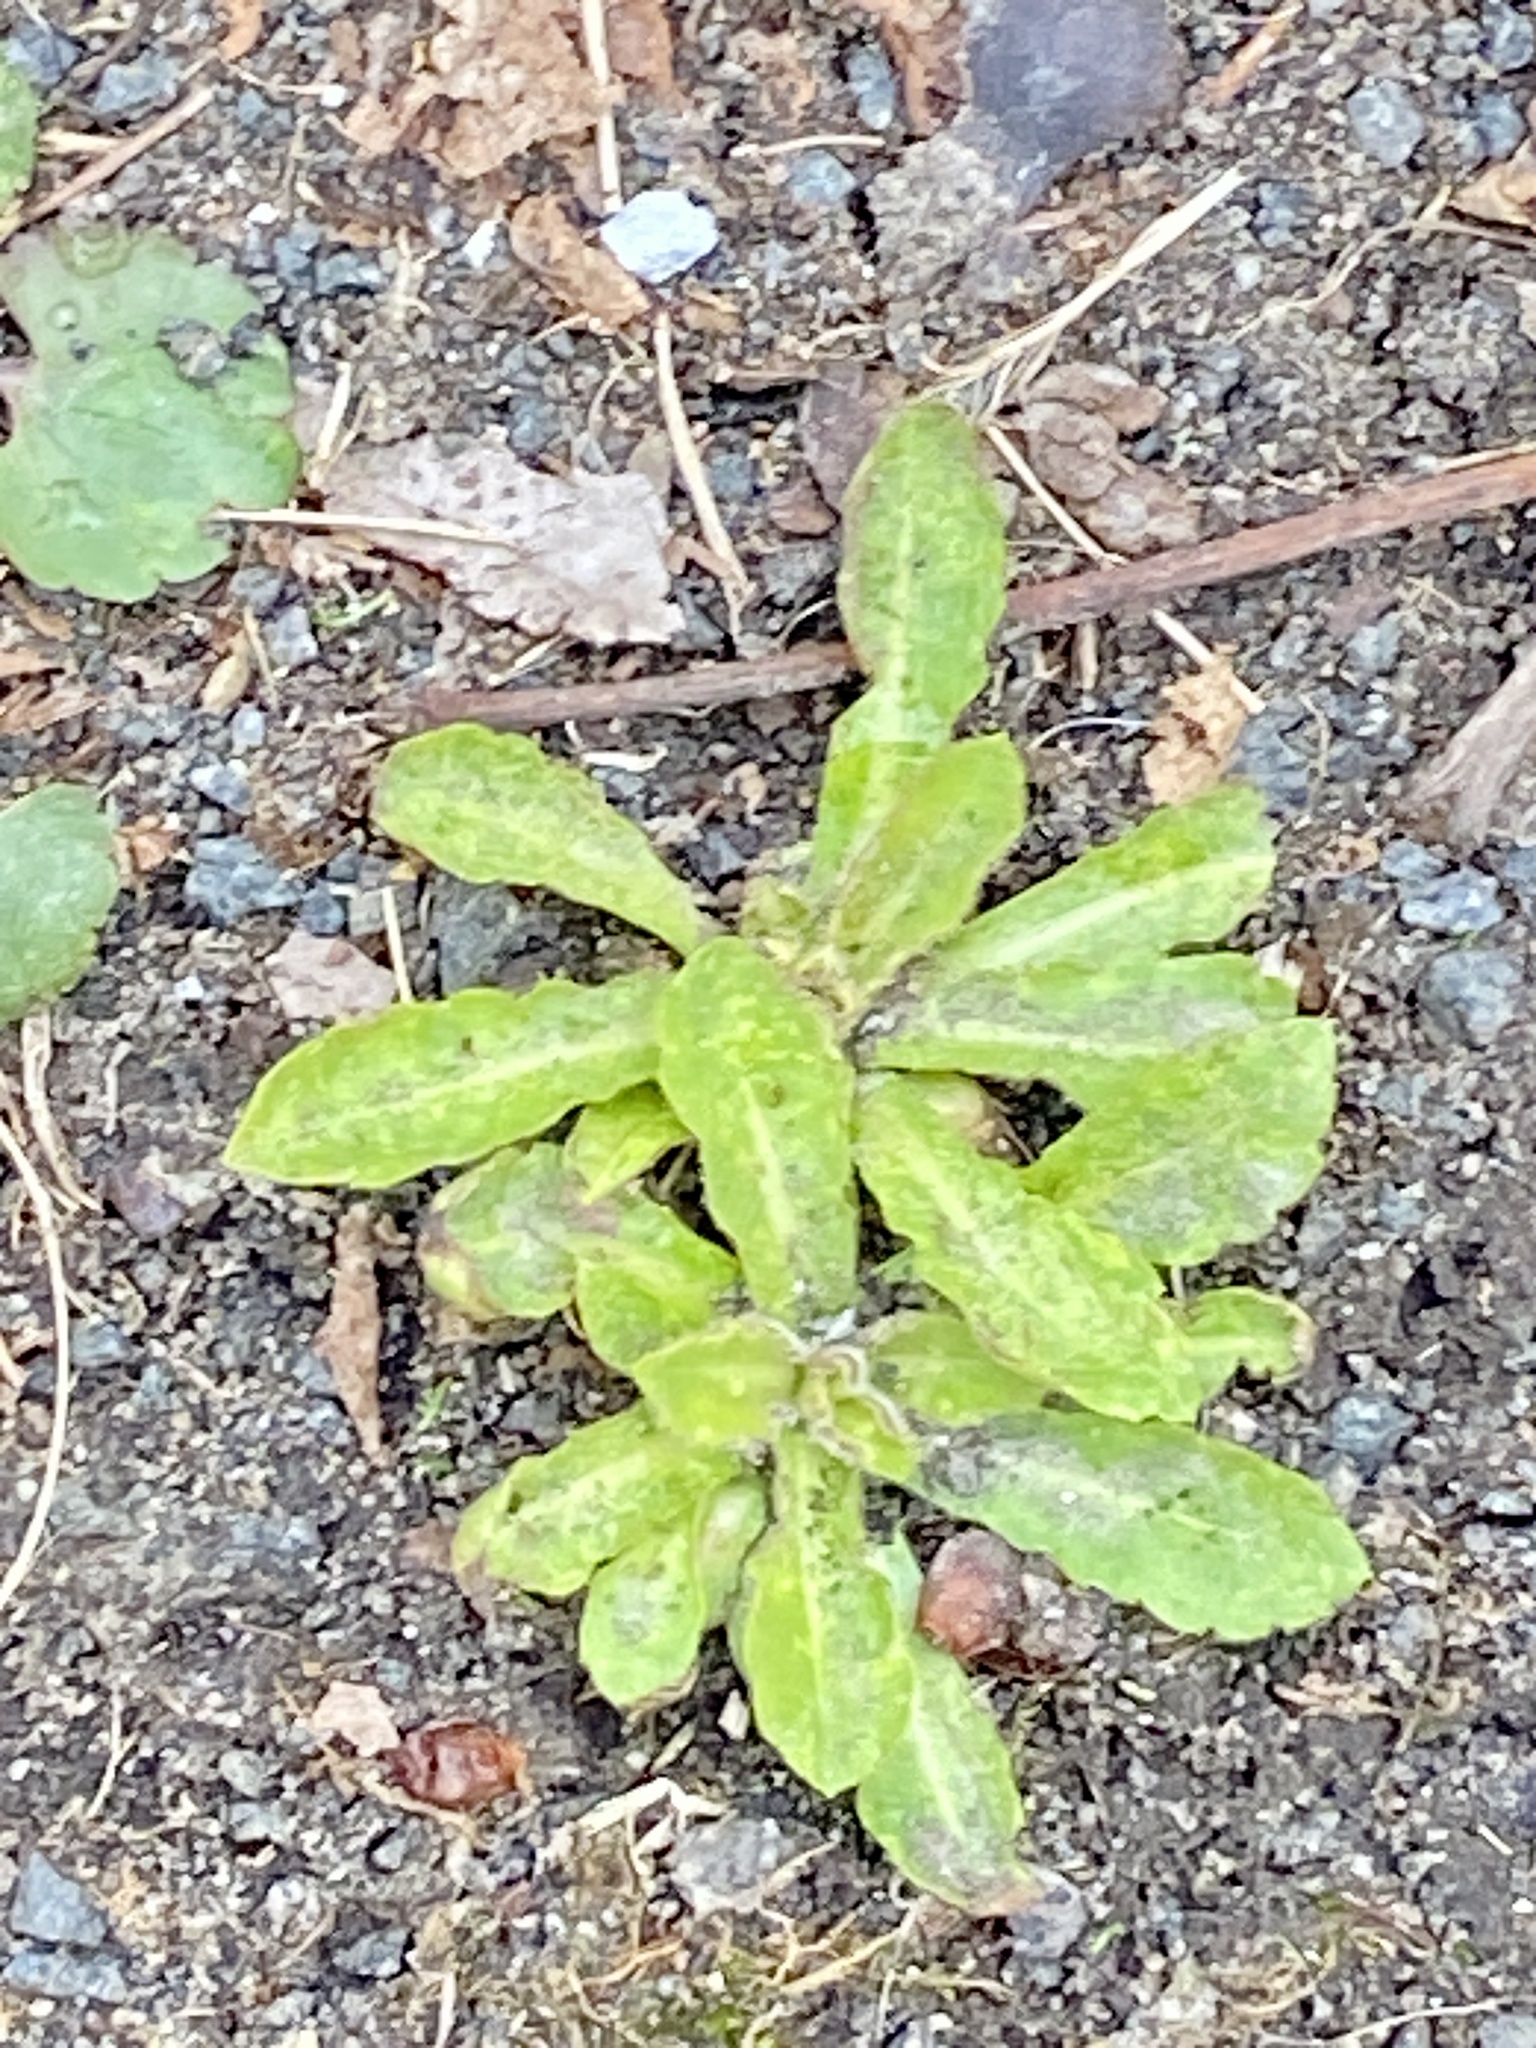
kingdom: Plantae
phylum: Tracheophyta
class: Magnoliopsida
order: Asterales
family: Asteraceae
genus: Hypochaeris
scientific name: Hypochaeris radicata
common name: Flatweed
